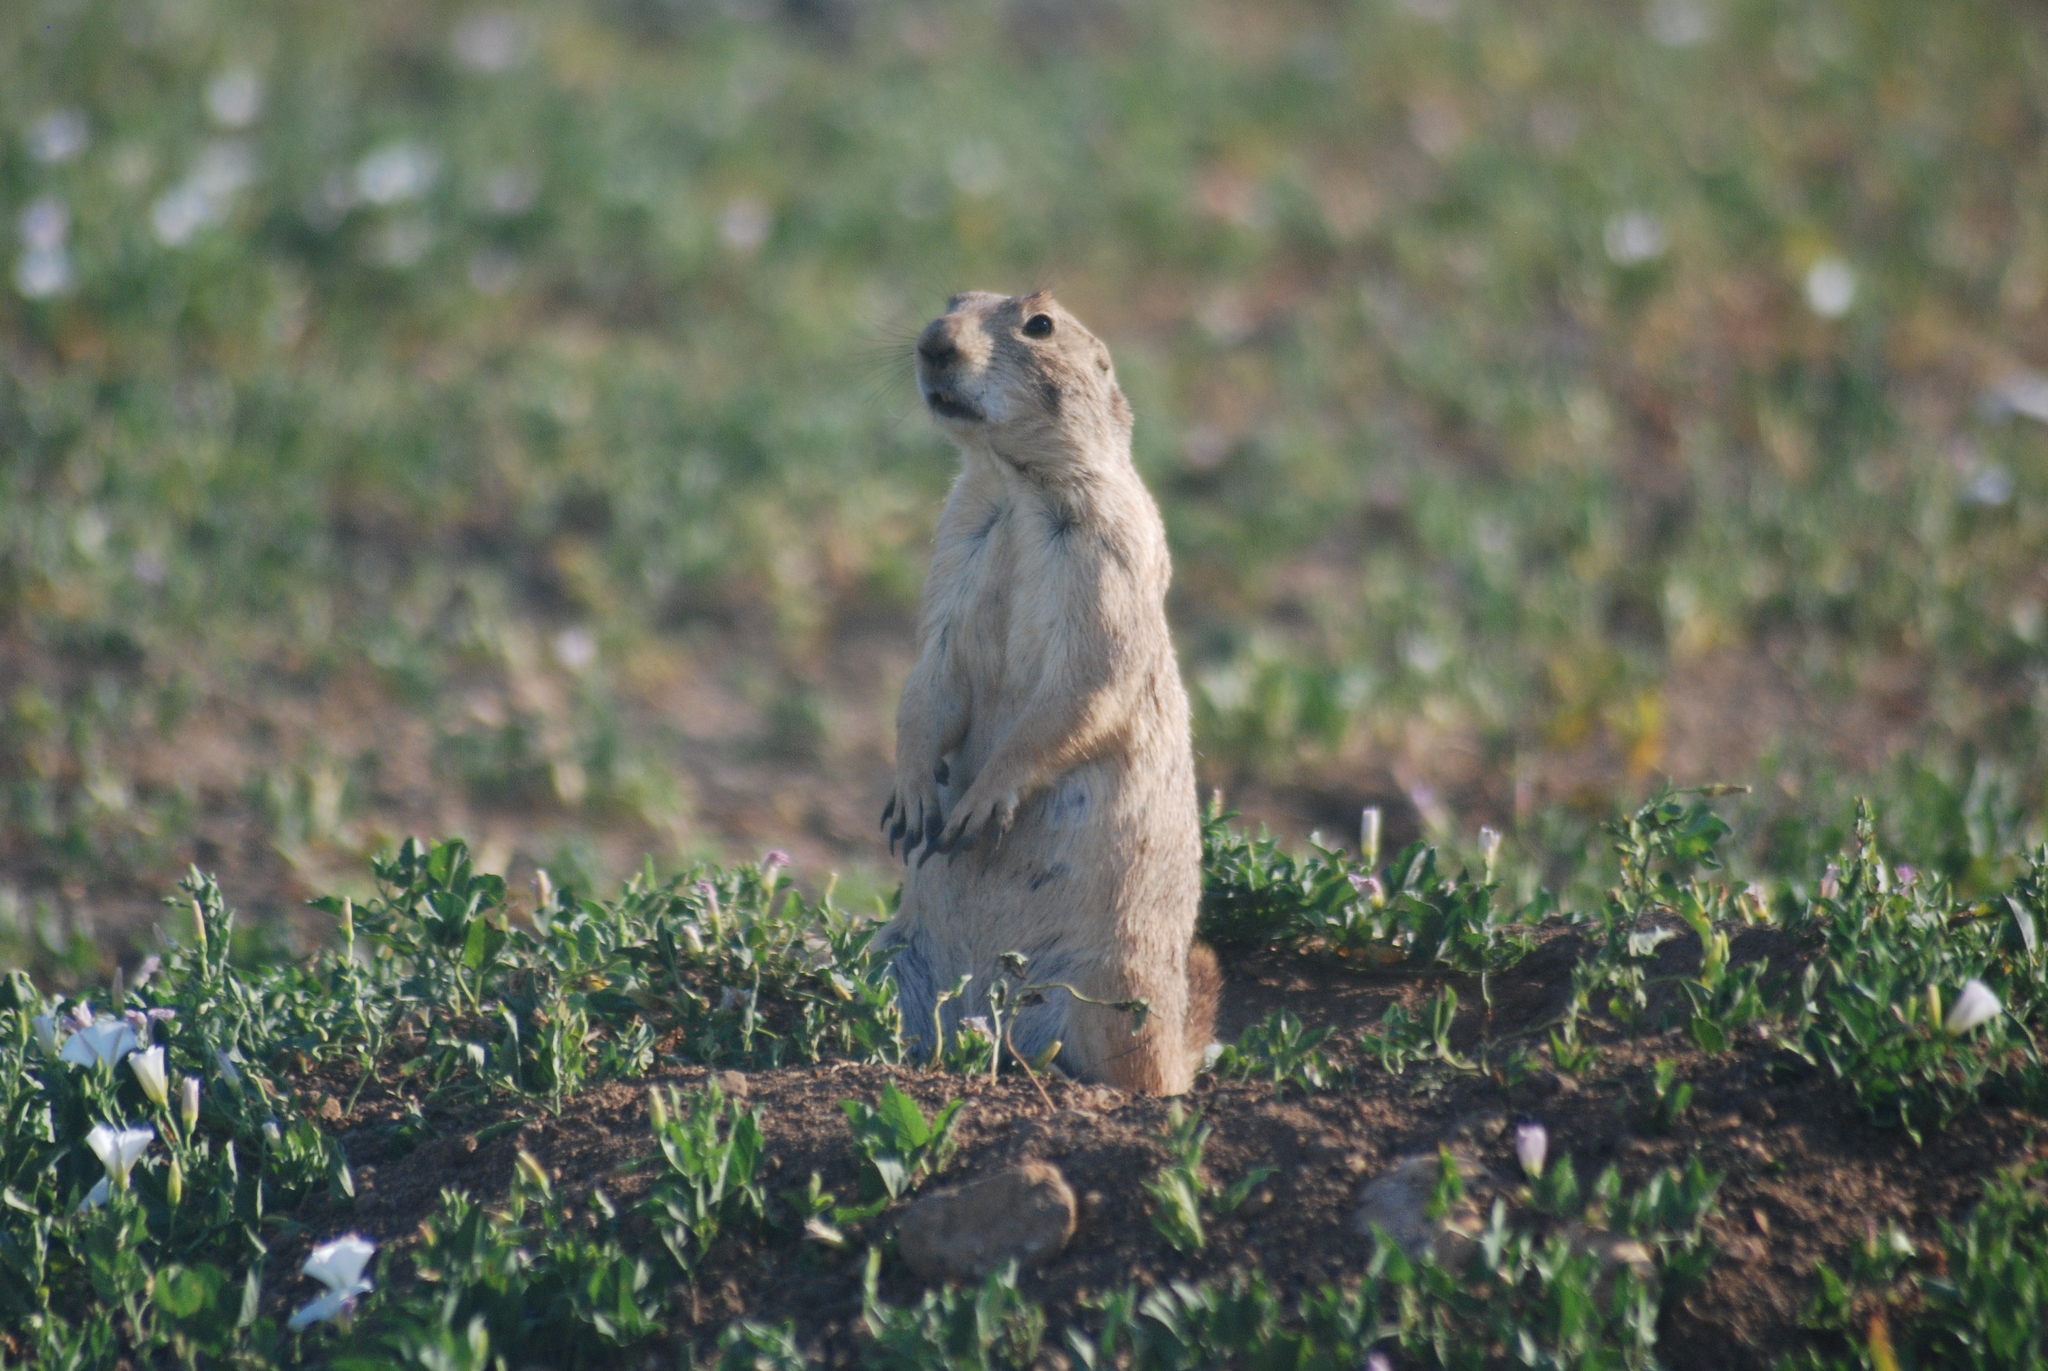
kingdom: Animalia
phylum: Chordata
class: Mammalia
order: Rodentia
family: Sciuridae
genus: Cynomys
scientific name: Cynomys ludovicianus
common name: Black-tailed prairie dog
